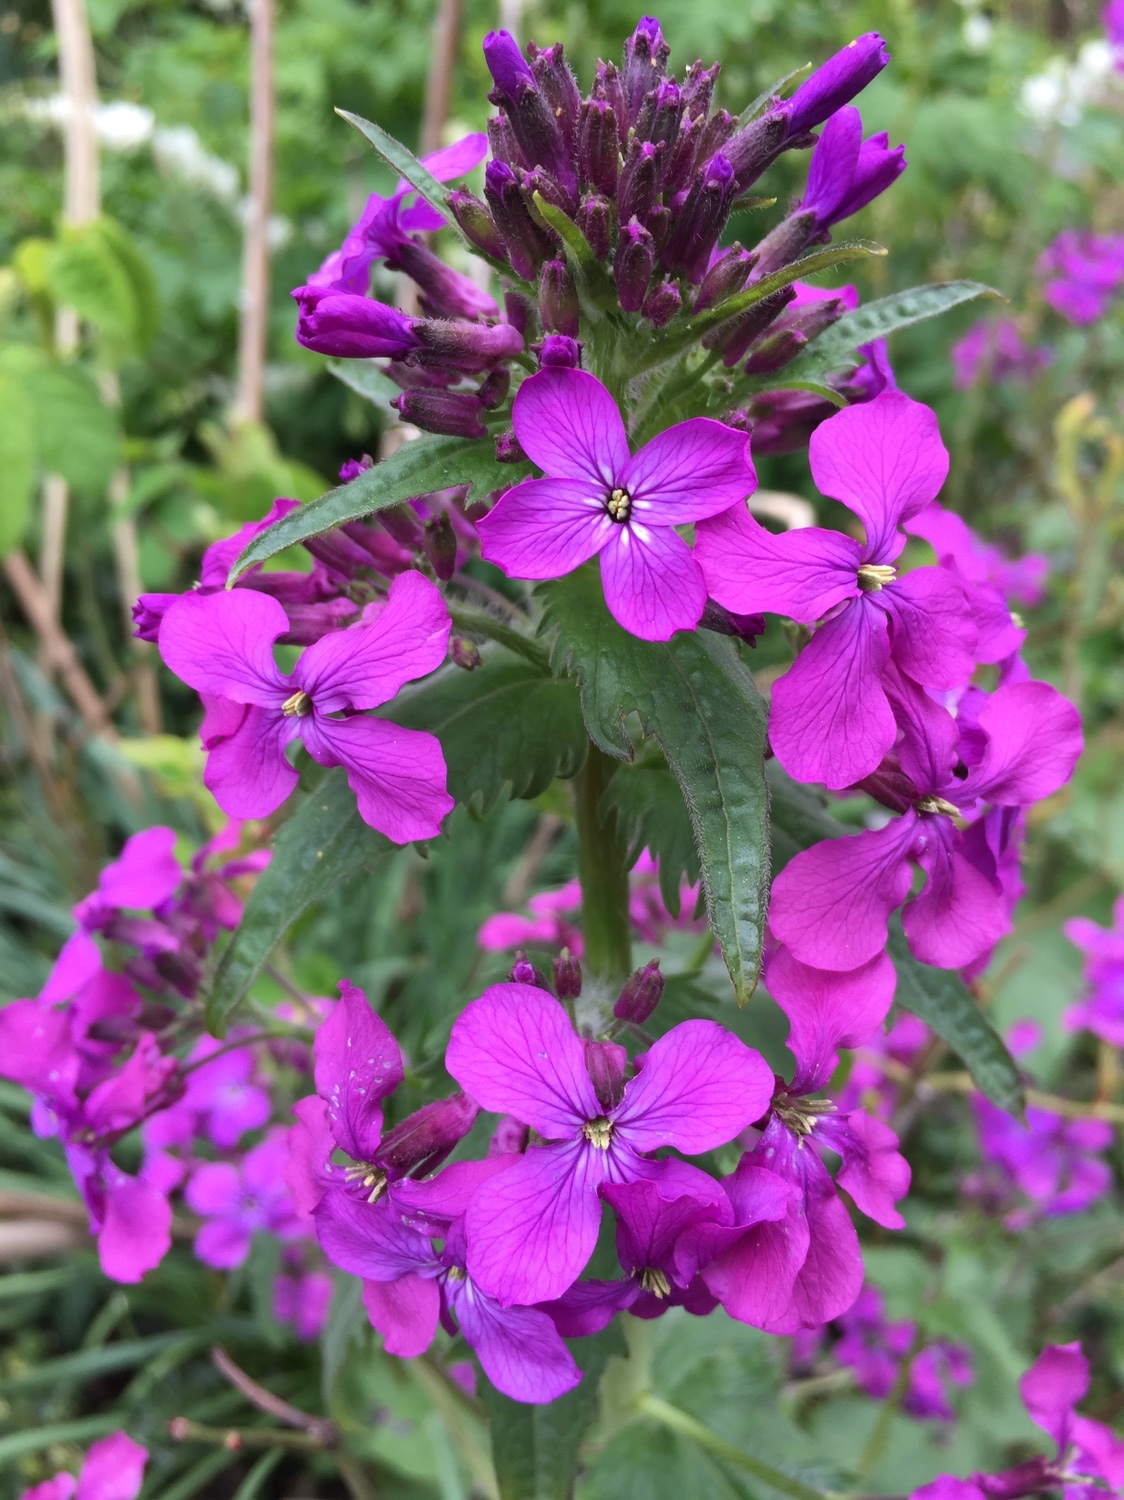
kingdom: Plantae
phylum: Tracheophyta
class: Magnoliopsida
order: Brassicales
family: Brassicaceae
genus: Lunaria
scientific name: Lunaria annua
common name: Honesty
